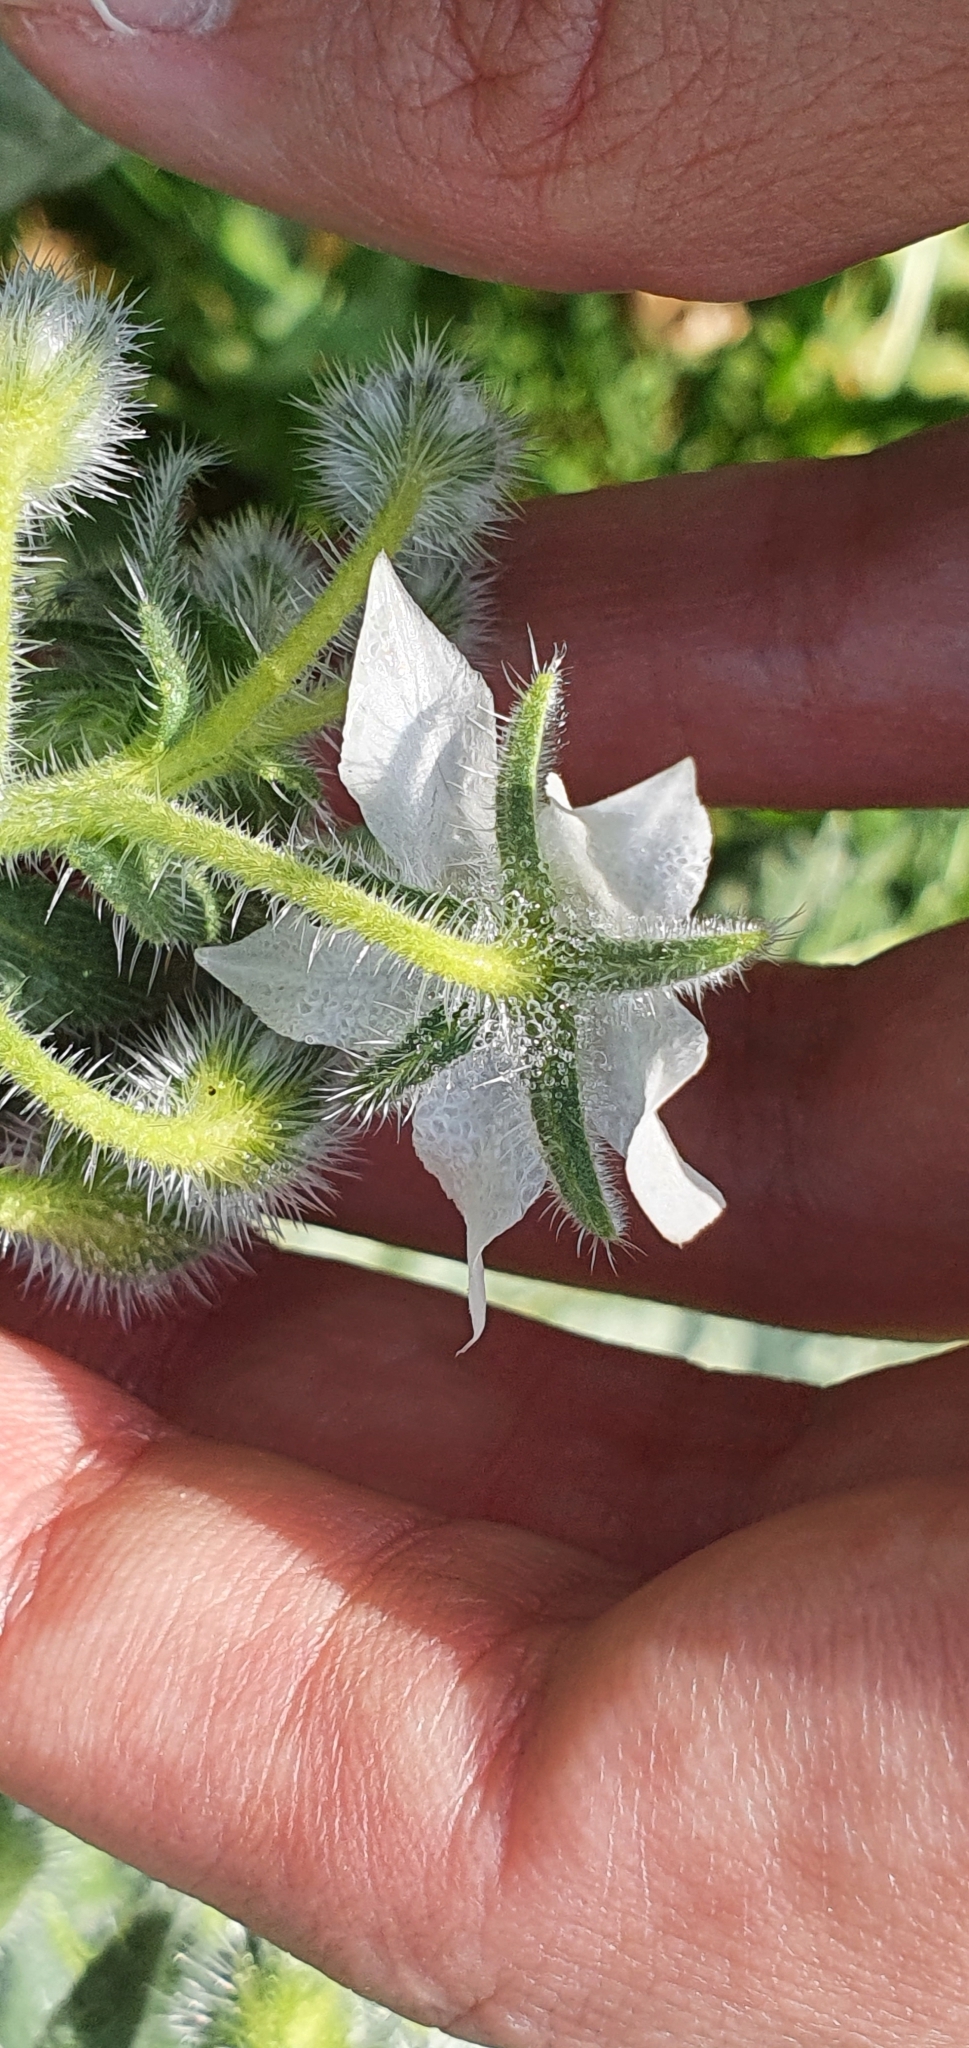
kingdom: Plantae
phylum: Tracheophyta
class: Magnoliopsida
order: Boraginales
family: Boraginaceae
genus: Borago
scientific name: Borago officinalis
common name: Borage
